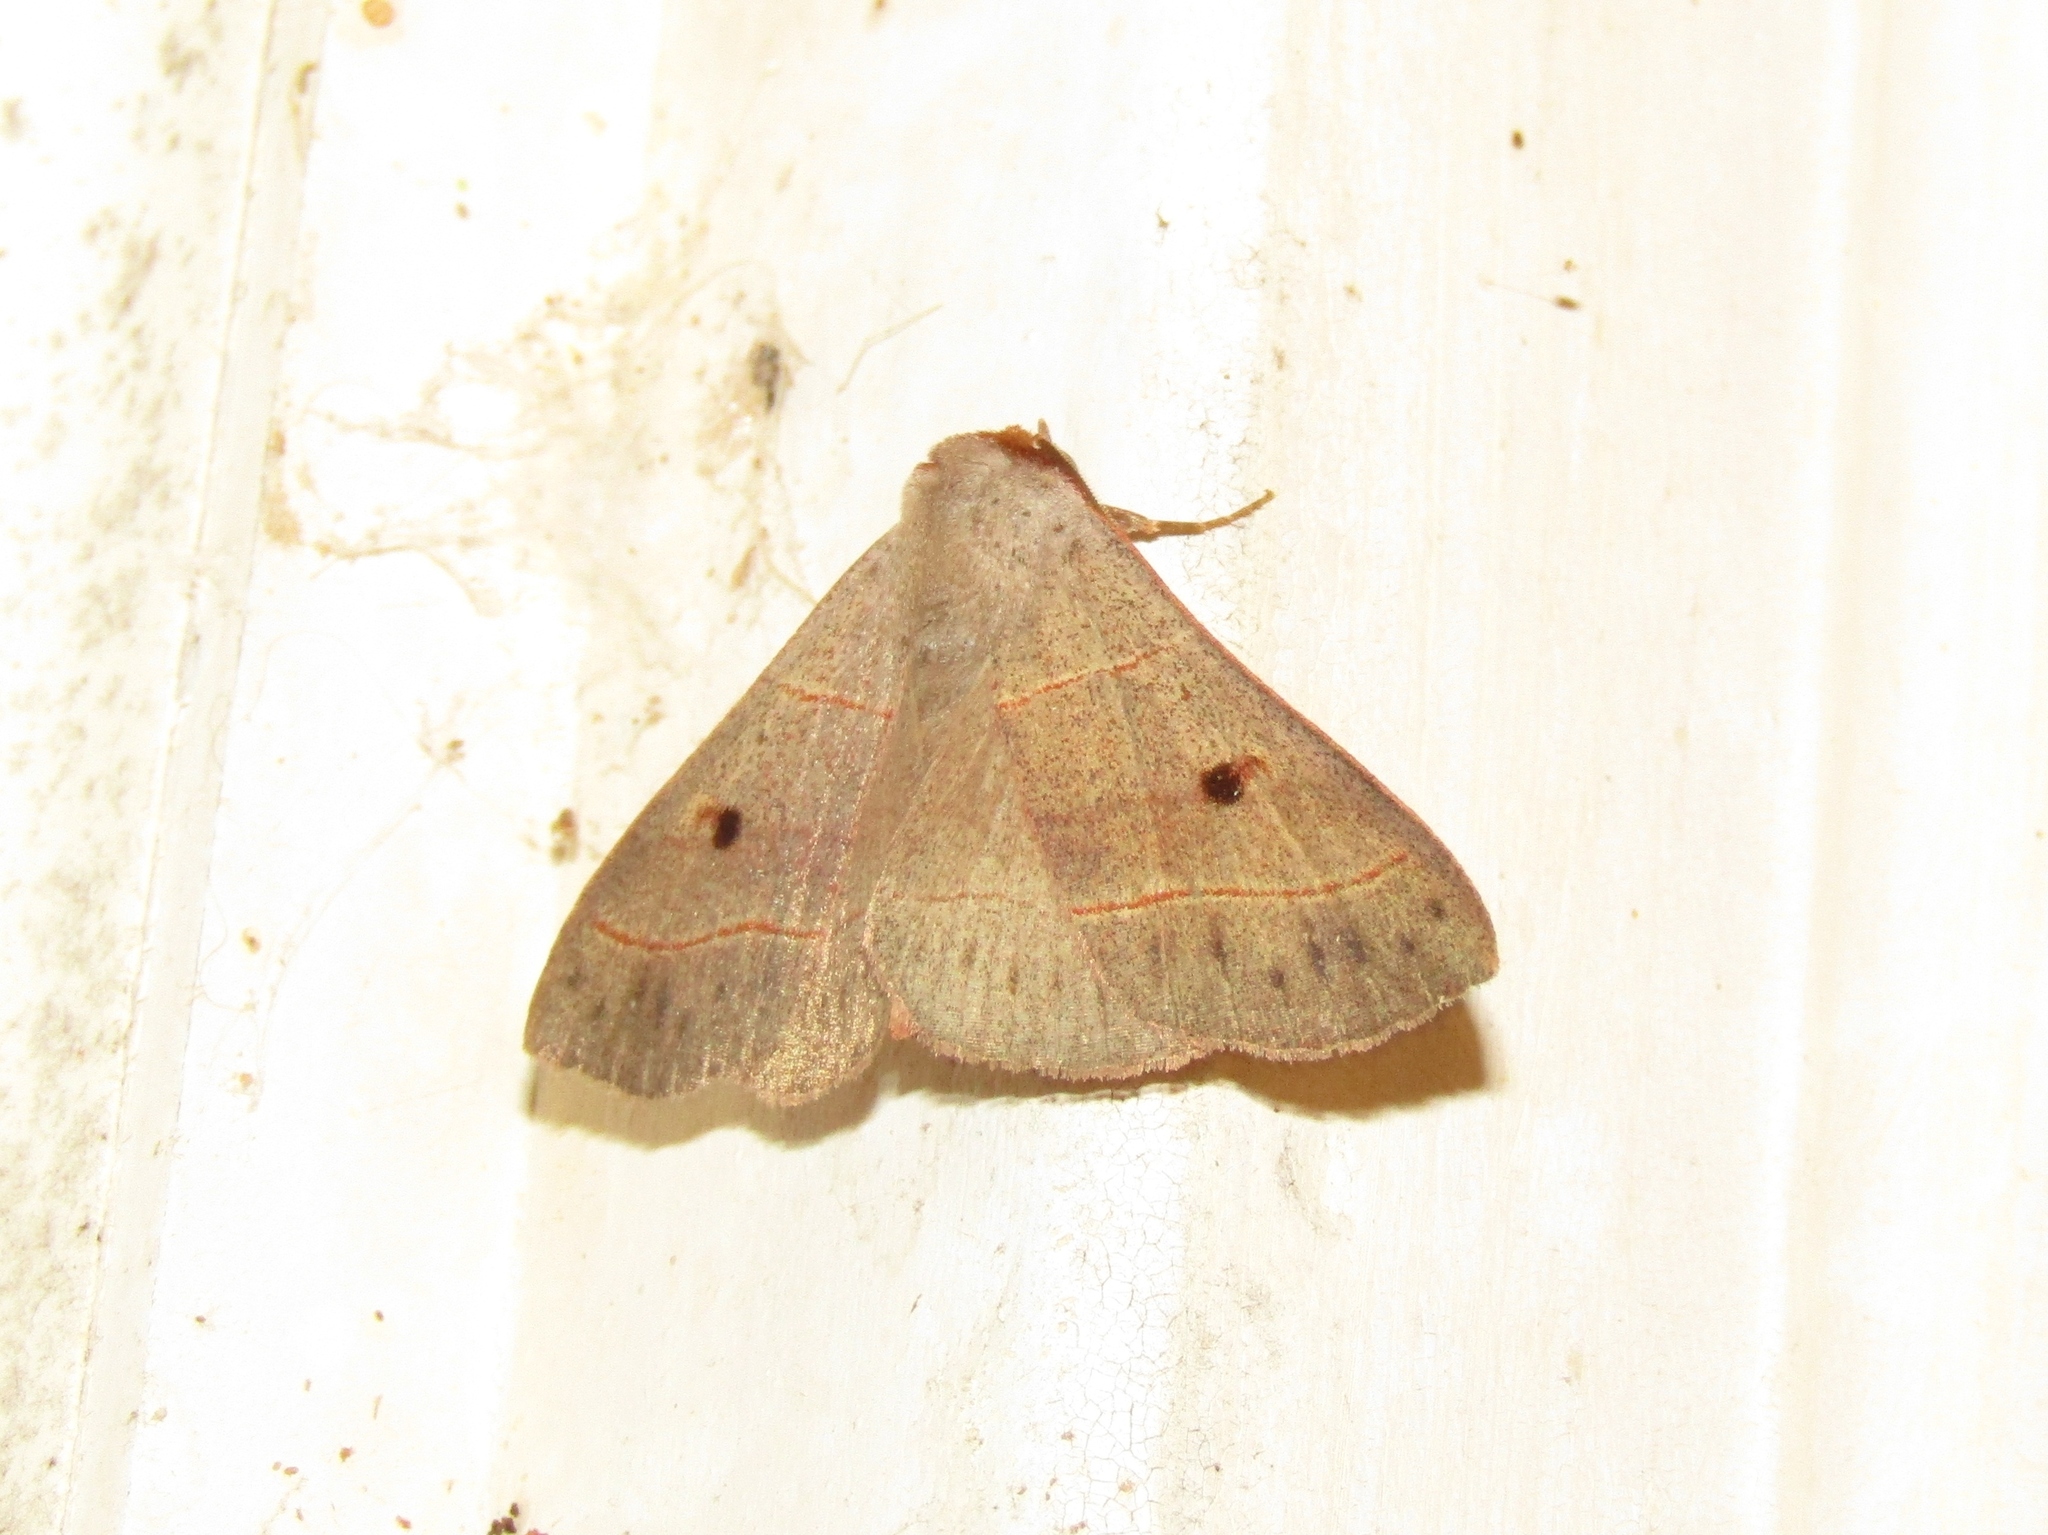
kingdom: Animalia
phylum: Arthropoda
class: Insecta
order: Lepidoptera
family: Erebidae
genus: Panopoda
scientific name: Panopoda rufimargo
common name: Red-lined panopoda moth
